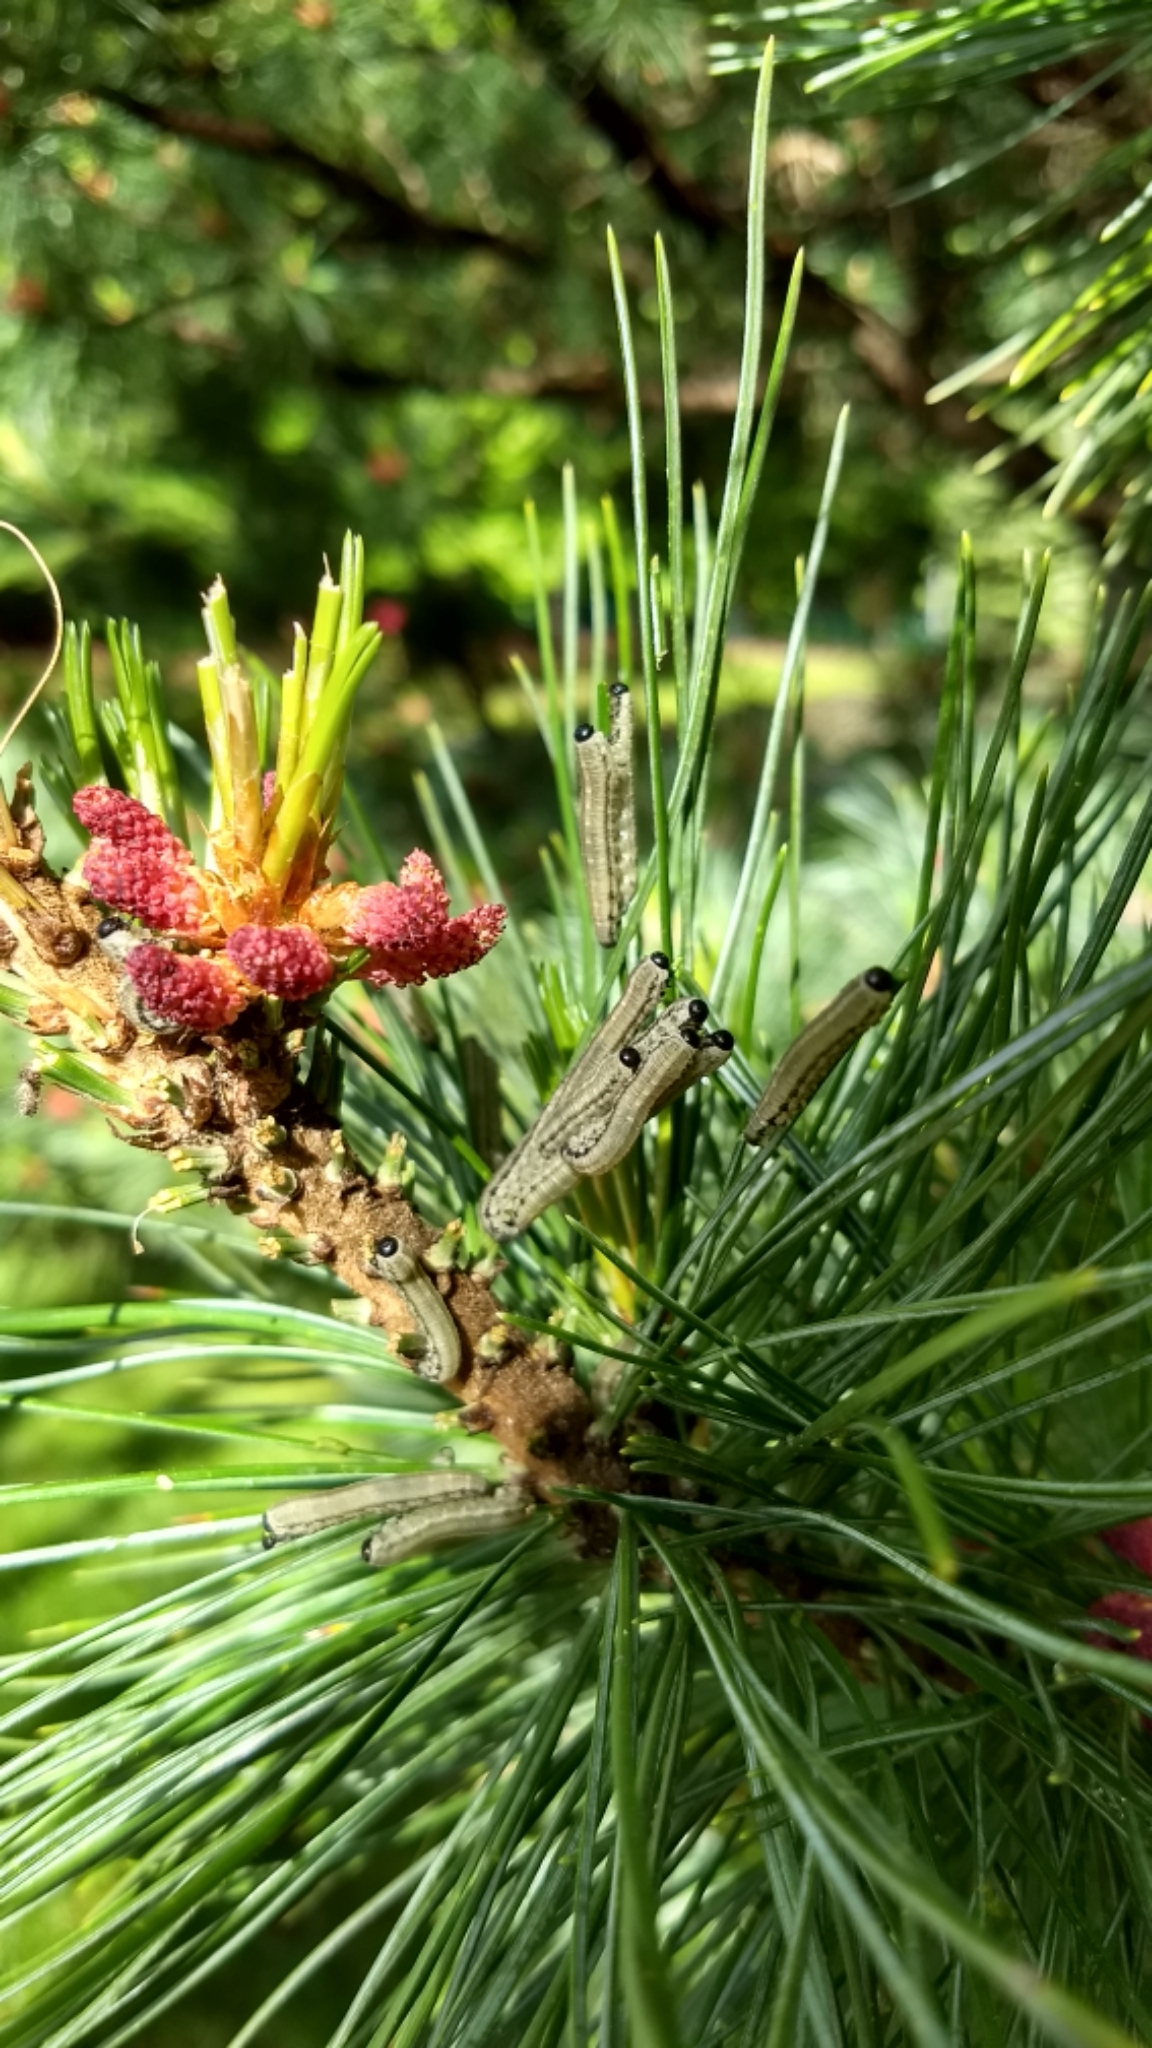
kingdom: Animalia
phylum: Arthropoda
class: Insecta
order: Hymenoptera
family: Diprionidae
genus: Neodiprion
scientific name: Neodiprion sertifer
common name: European pine sawfly
